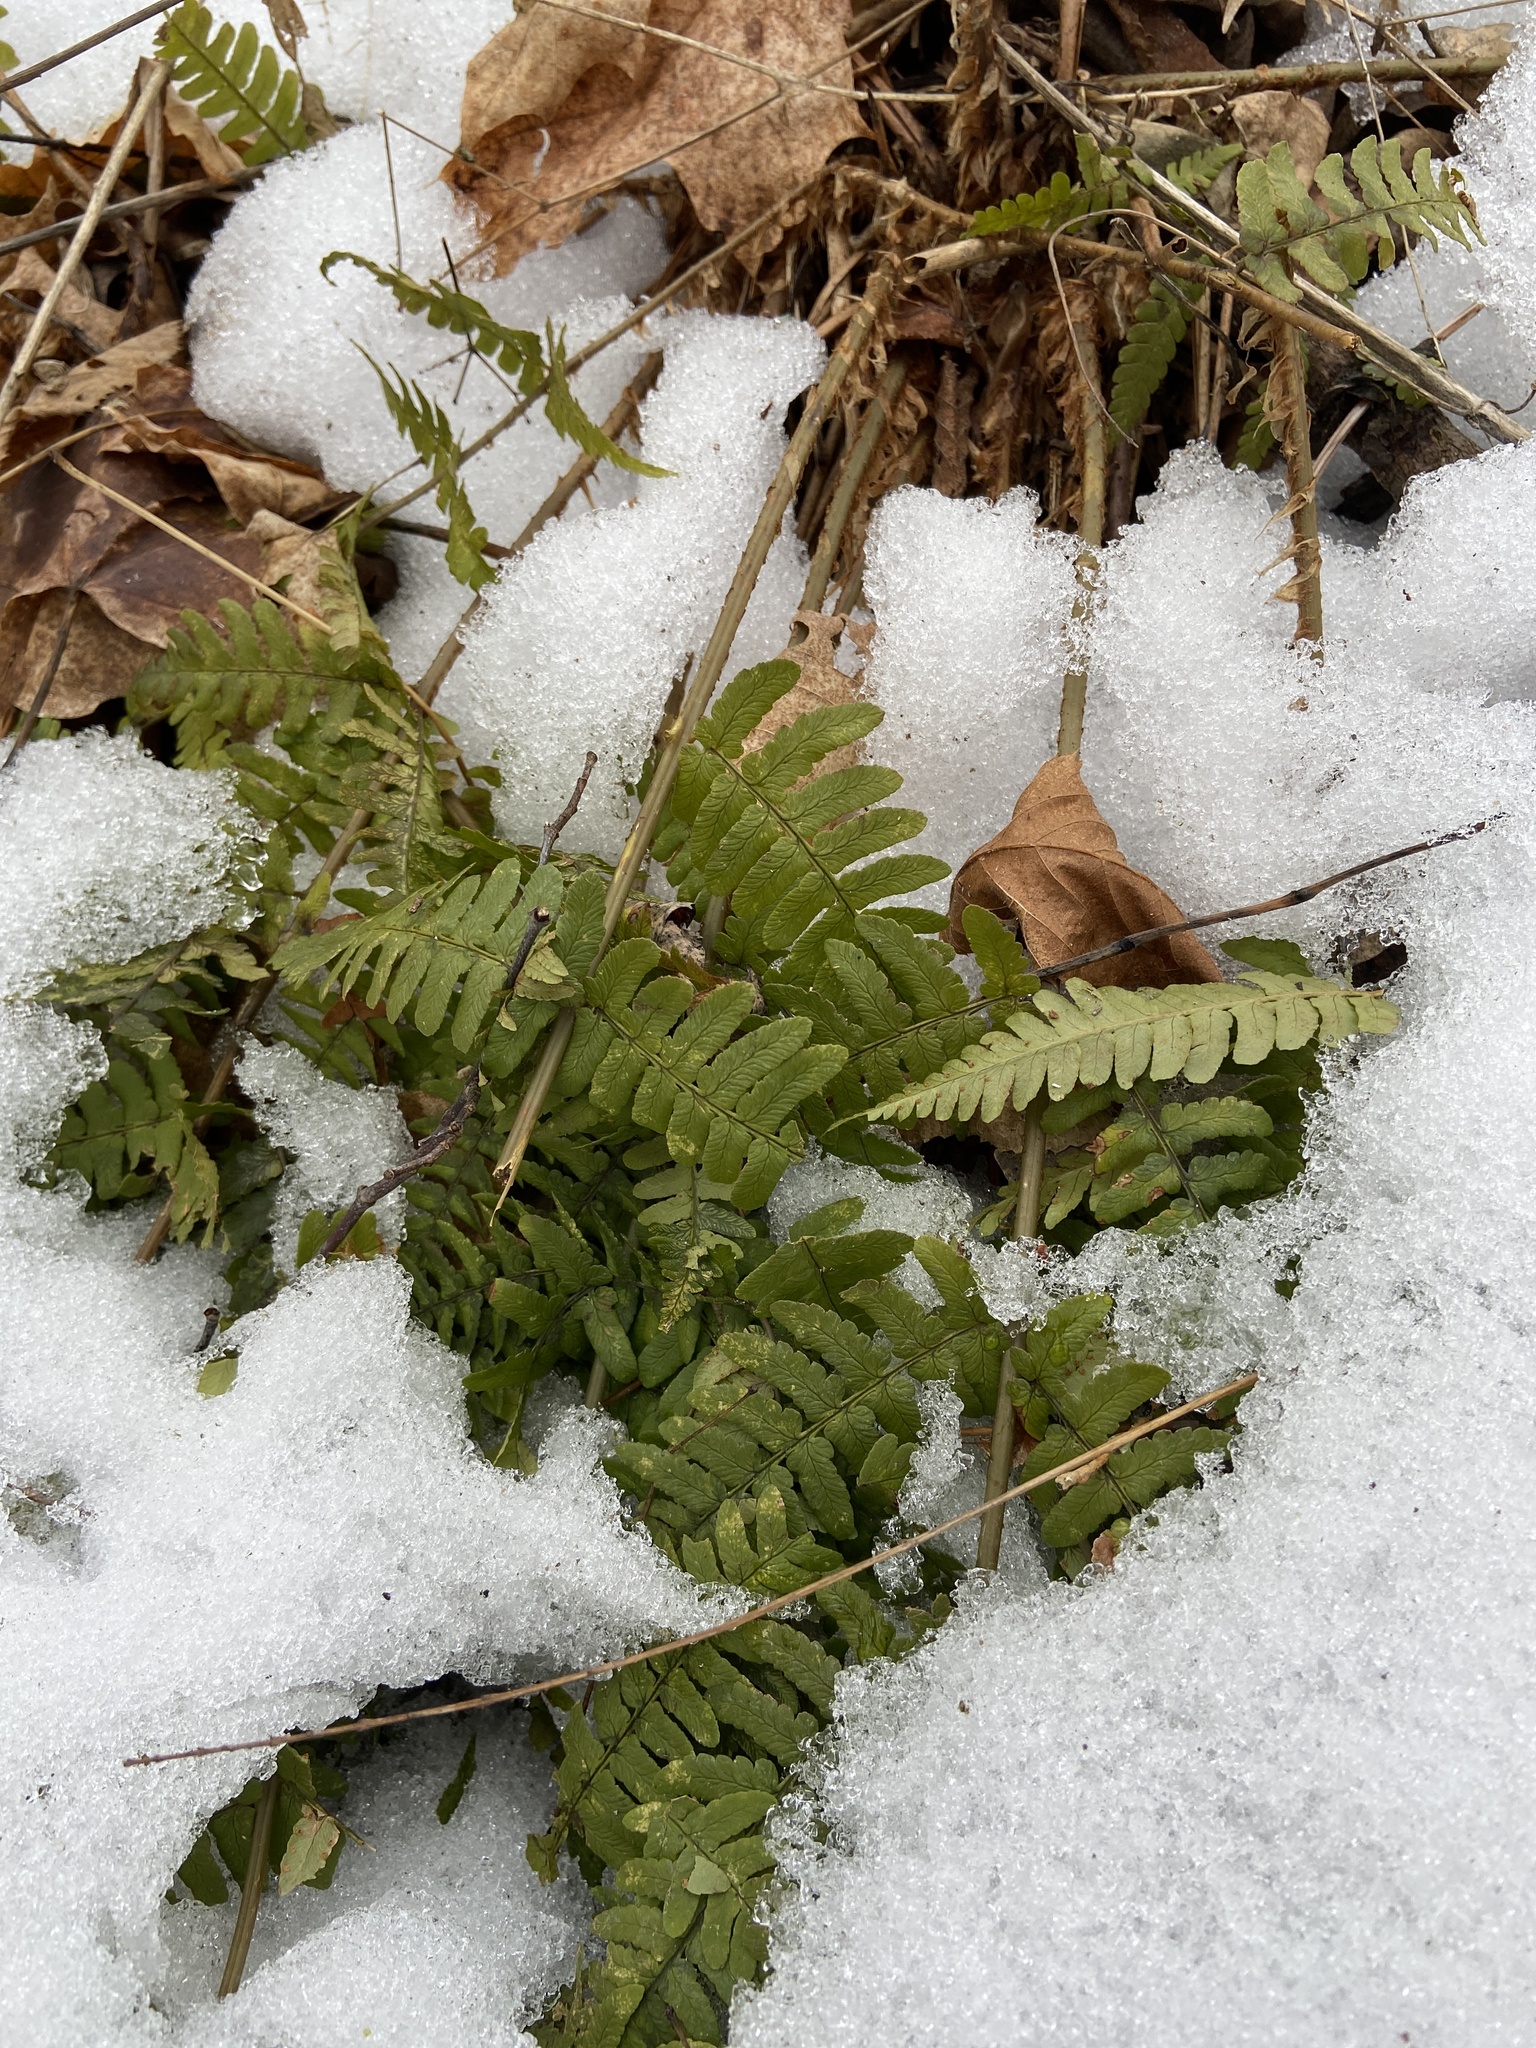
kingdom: Plantae
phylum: Tracheophyta
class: Polypodiopsida
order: Polypodiales
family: Dryopteridaceae
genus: Dryopteris
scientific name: Dryopteris marginalis
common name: Marginal wood fern
